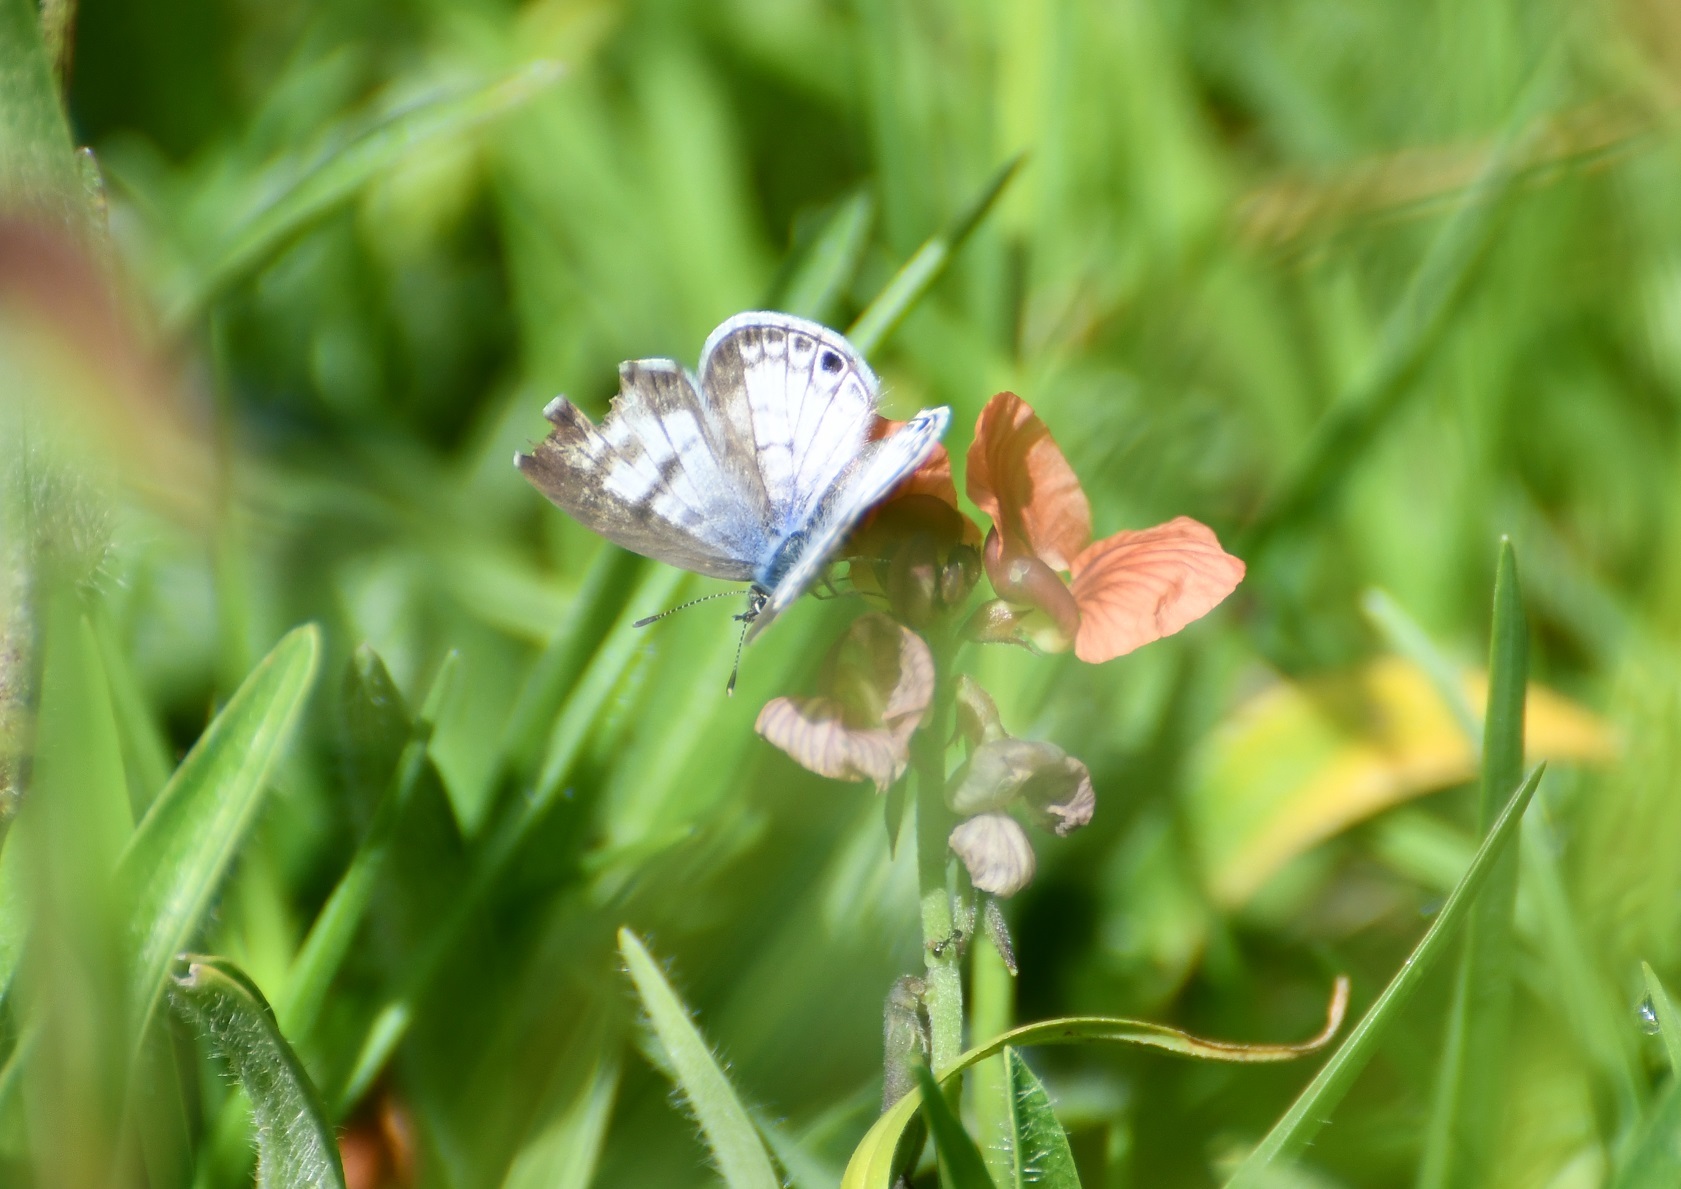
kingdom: Animalia
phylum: Arthropoda
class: Insecta
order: Lepidoptera
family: Lycaenidae
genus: Leptotes
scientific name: Leptotes theonus
